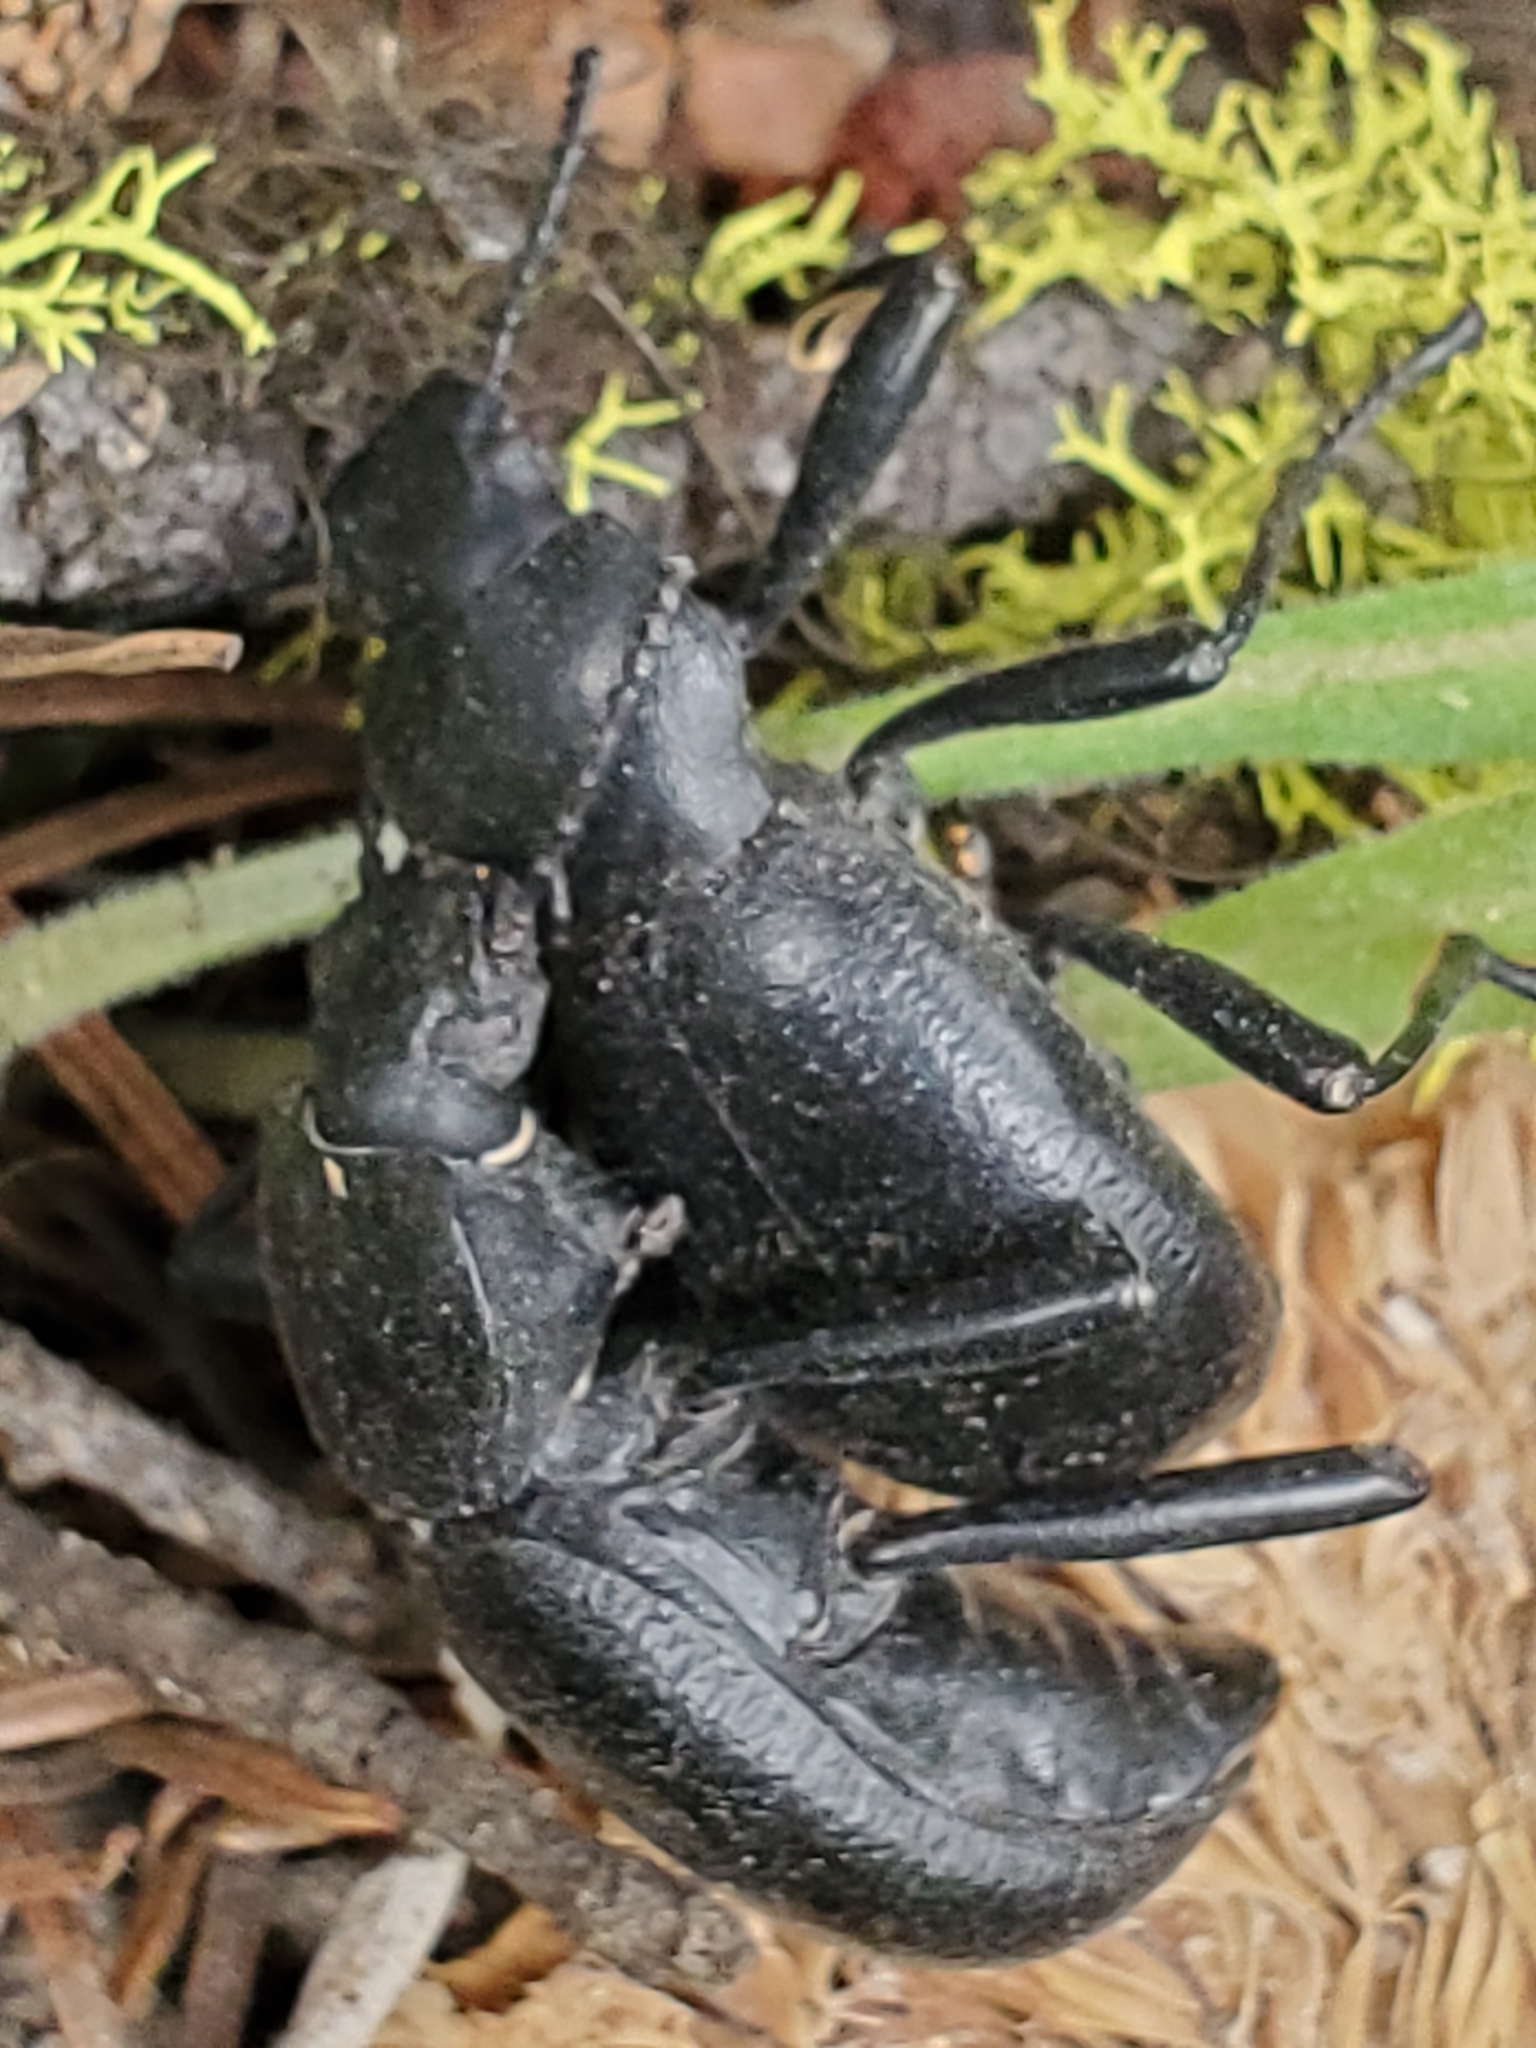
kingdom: Animalia
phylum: Arthropoda
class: Insecta
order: Coleoptera
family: Tenebrionidae
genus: Coelocnemis
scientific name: Coelocnemis dilaticollis
